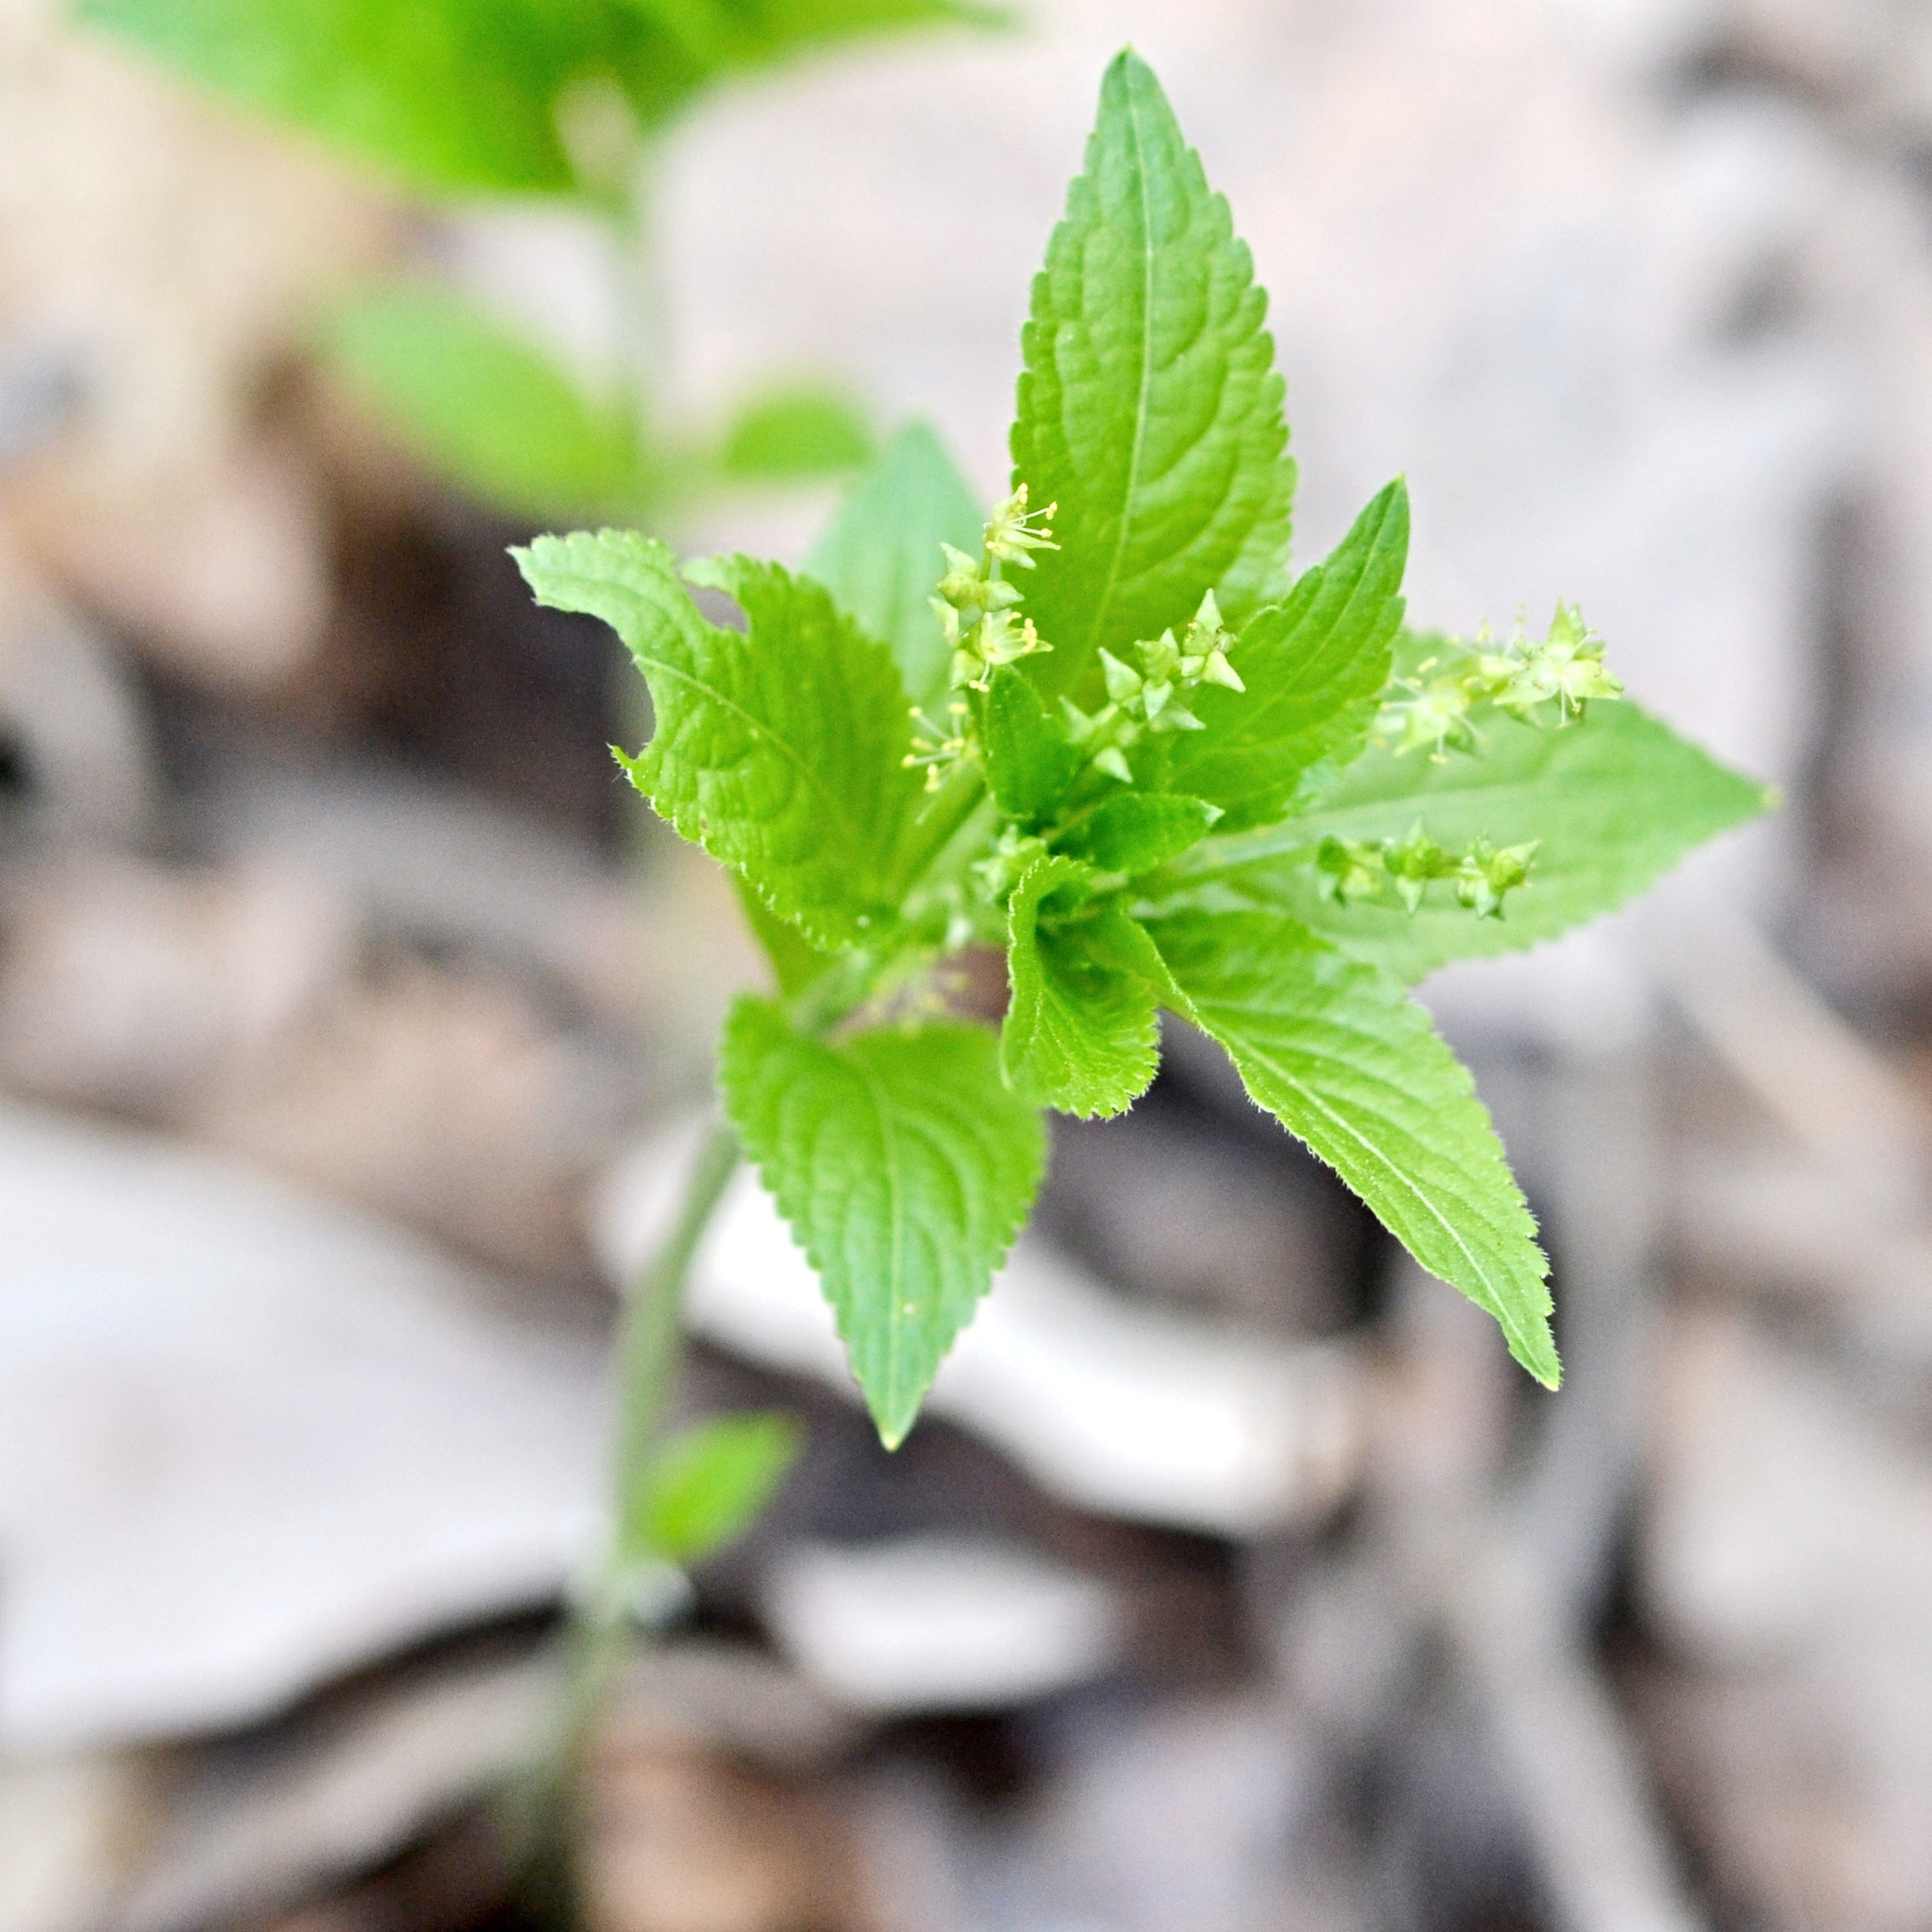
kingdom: Plantae
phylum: Tracheophyta
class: Magnoliopsida
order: Malpighiales
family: Euphorbiaceae
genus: Mercurialis
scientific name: Mercurialis perennis
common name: Dog mercury
